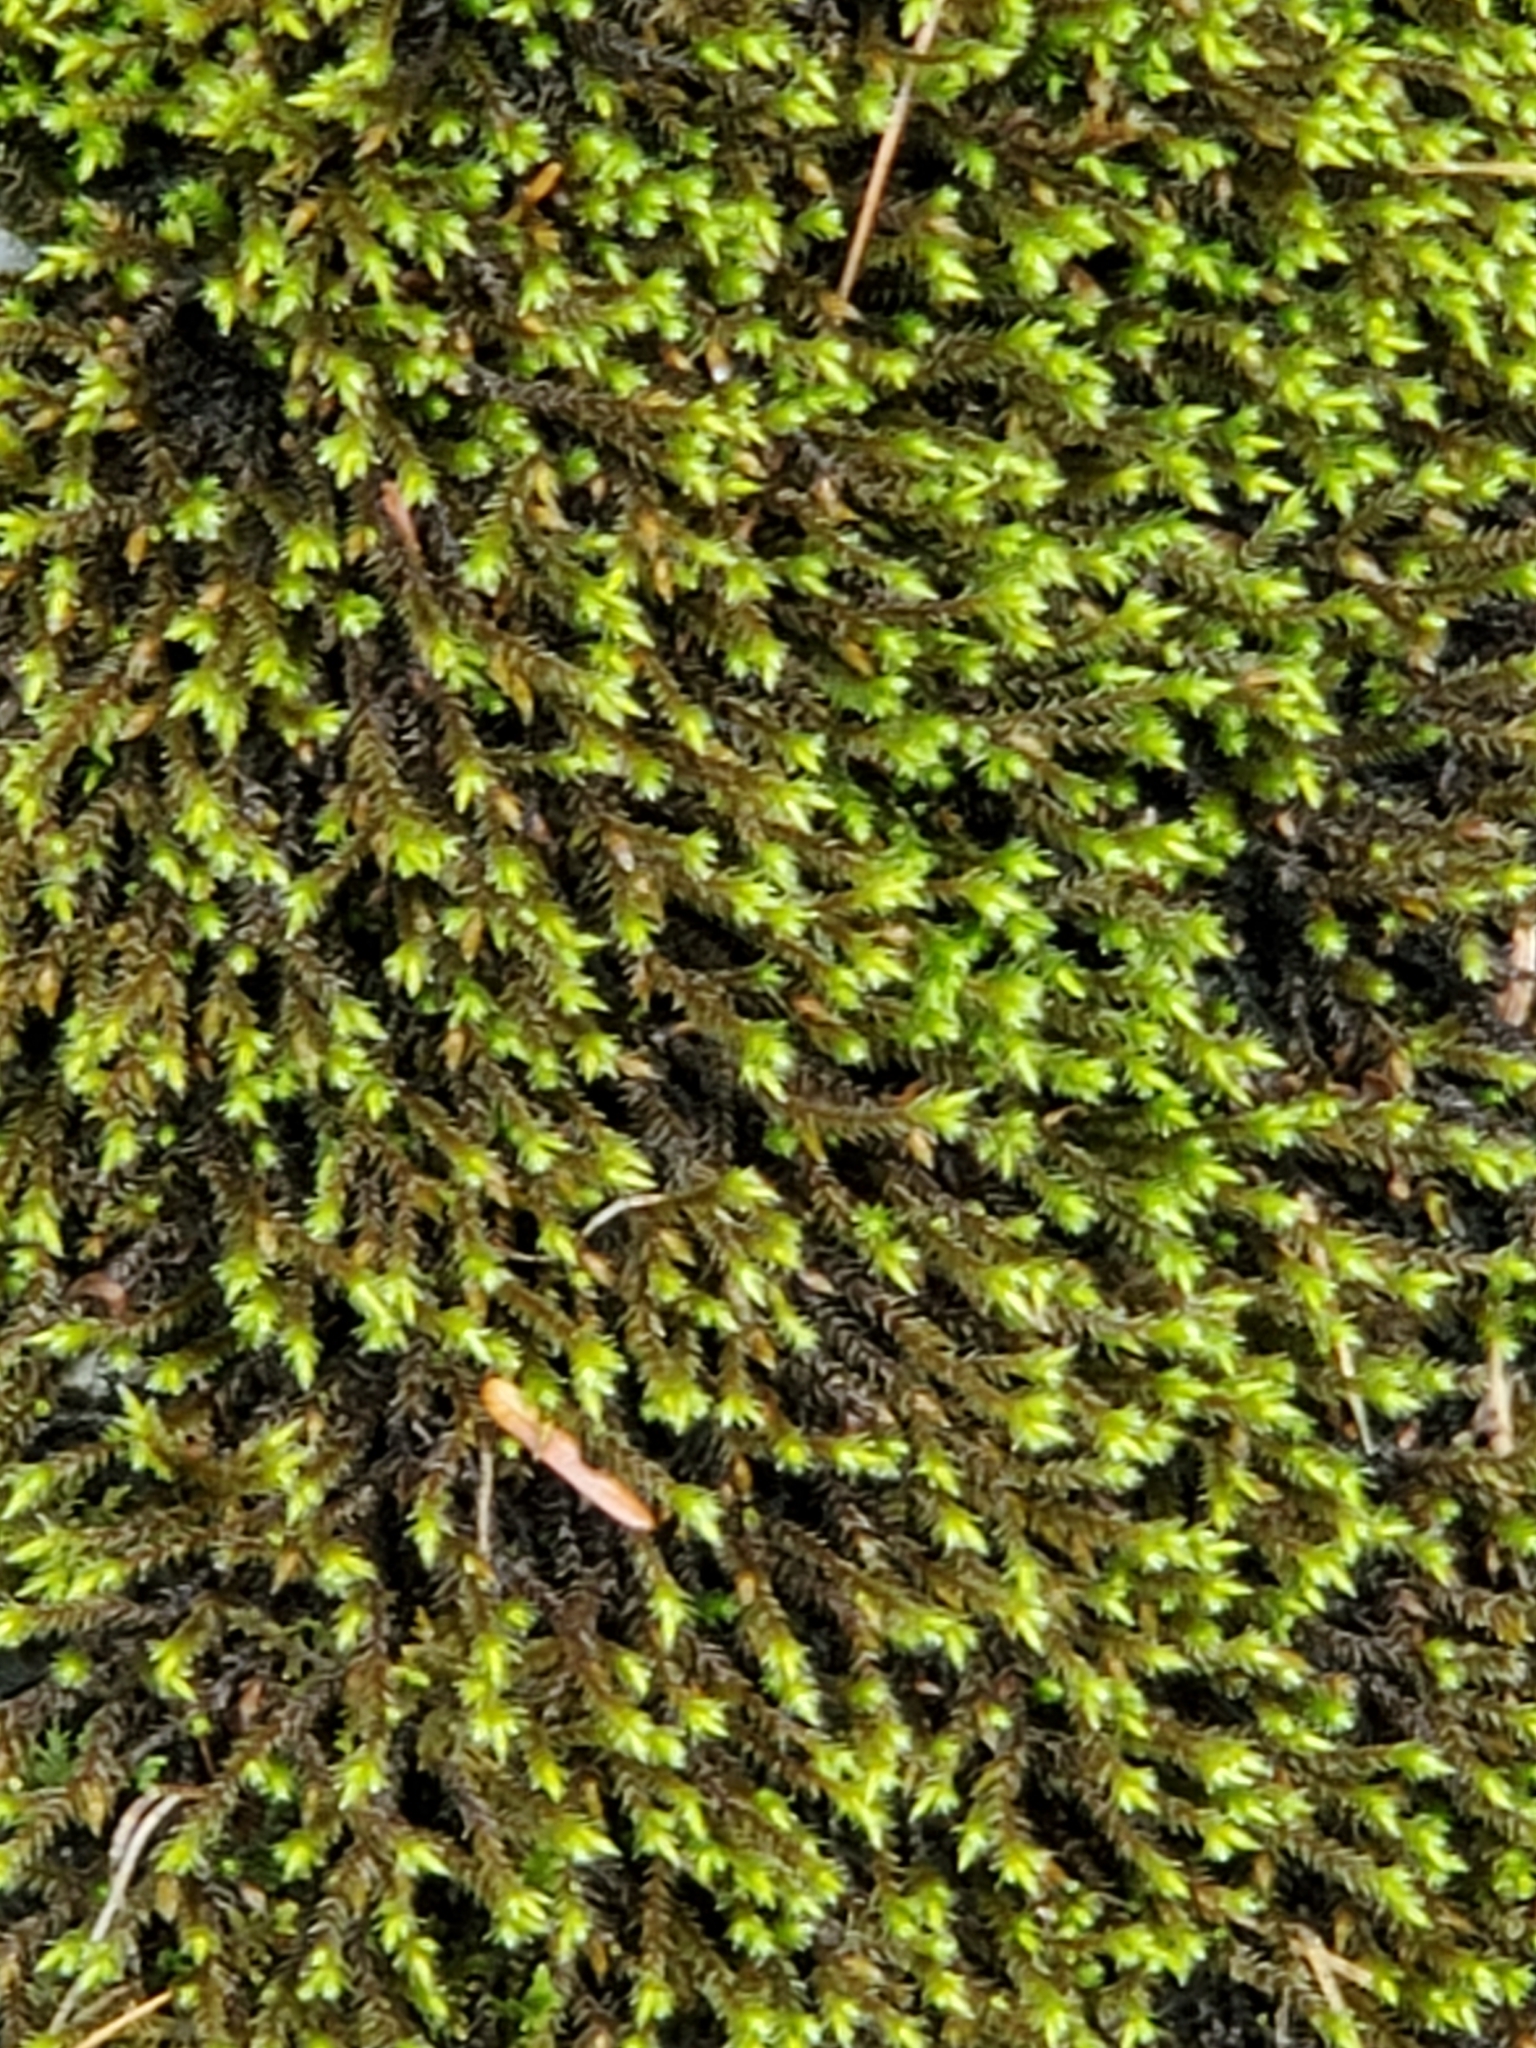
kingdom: Plantae
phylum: Bryophyta
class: Bryopsida
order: Hedwigiales
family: Hedwigiaceae
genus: Hedwigia
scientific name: Hedwigia ciliata
